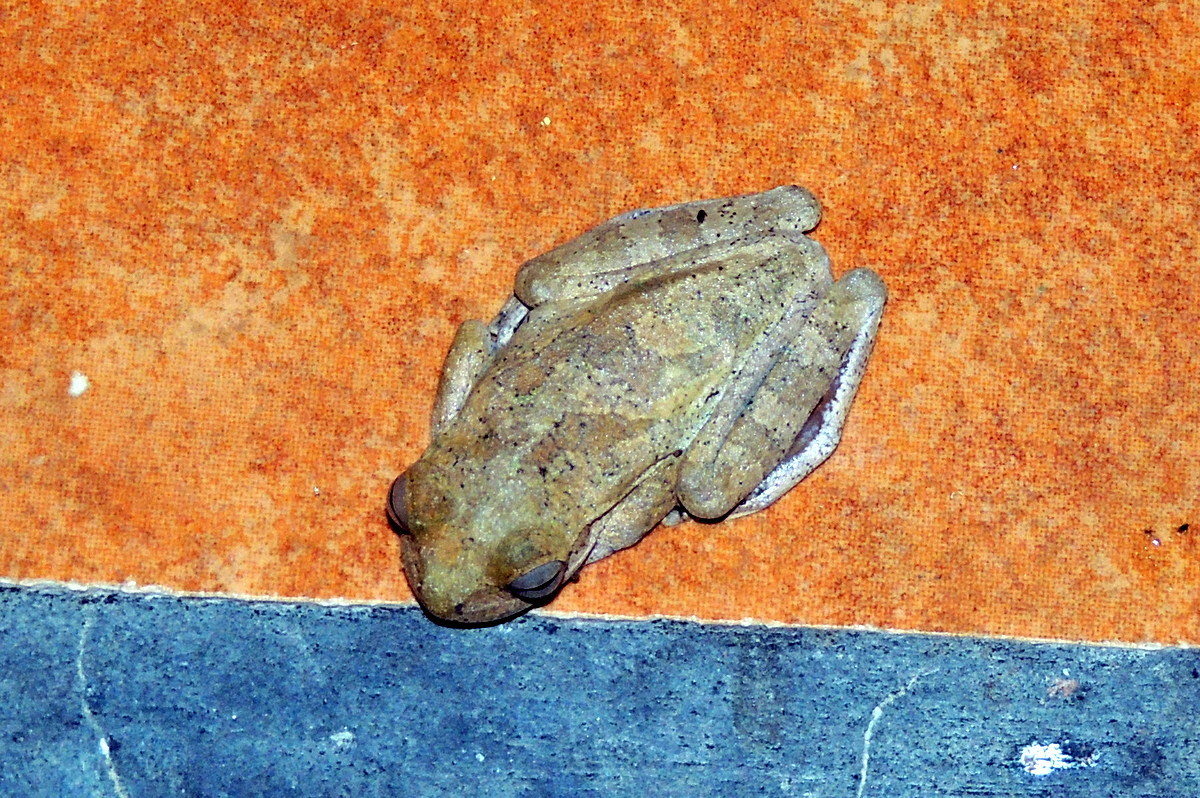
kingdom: Animalia
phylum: Chordata
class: Amphibia
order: Anura
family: Hylidae
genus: Smilisca
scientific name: Smilisca sordida
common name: Veragua cross-banded treefrog
